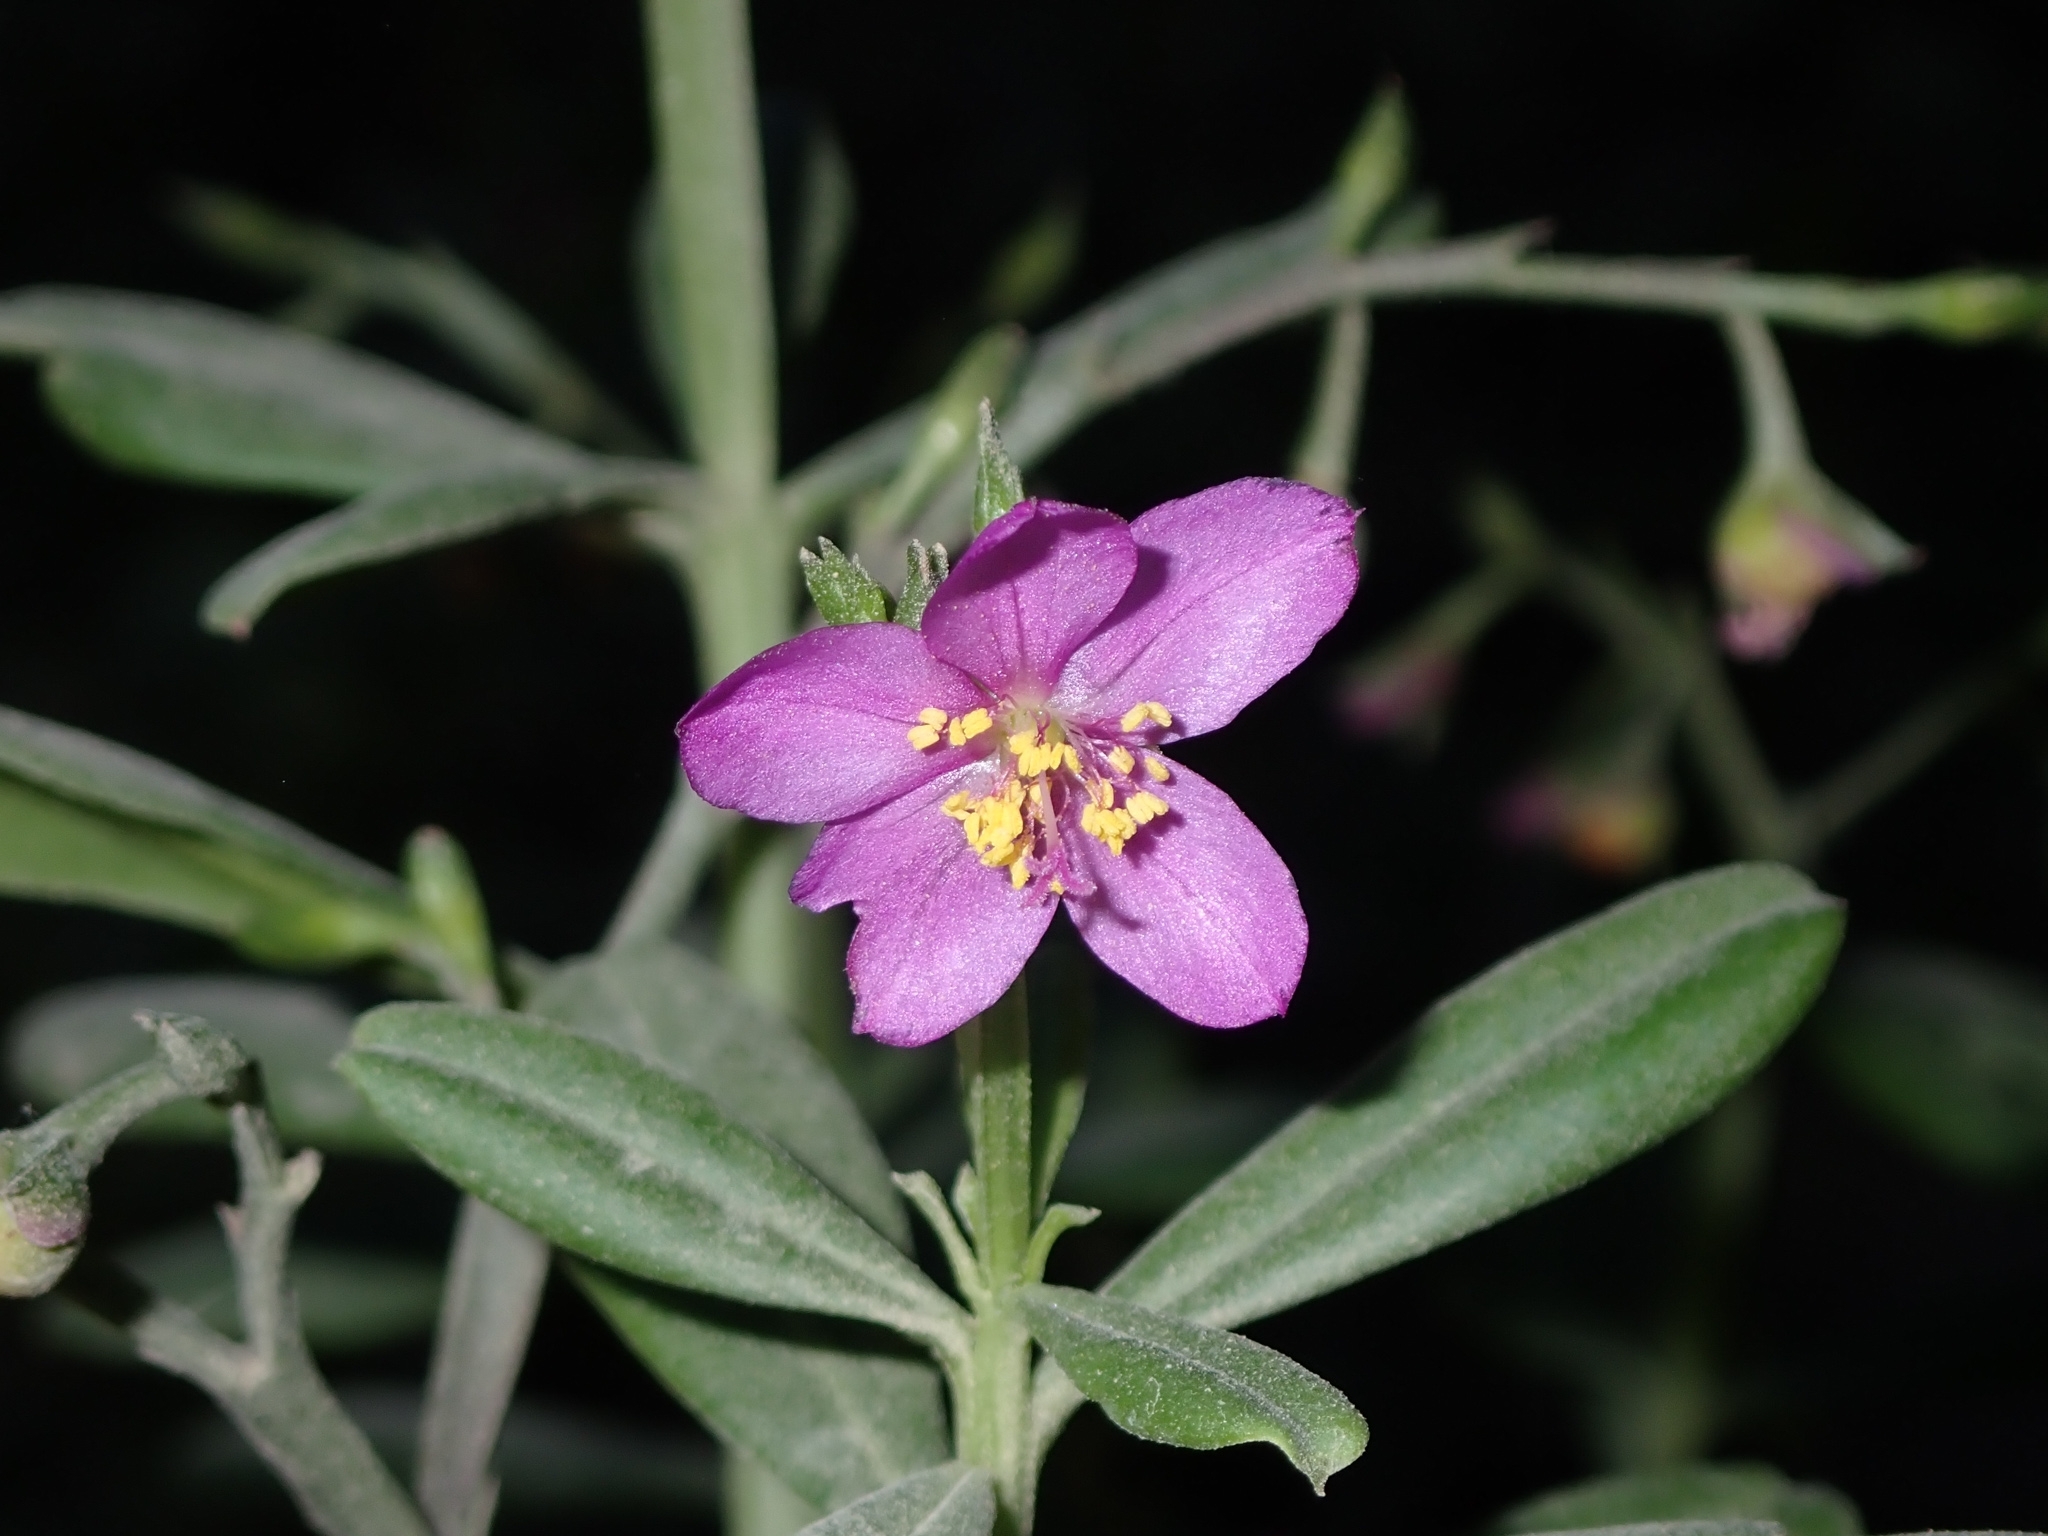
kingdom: Plantae
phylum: Tracheophyta
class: Magnoliopsida
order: Caryophyllales
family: Talinaceae
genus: Talinum
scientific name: Talinum fruticosum
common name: Verdolaga-francesa
